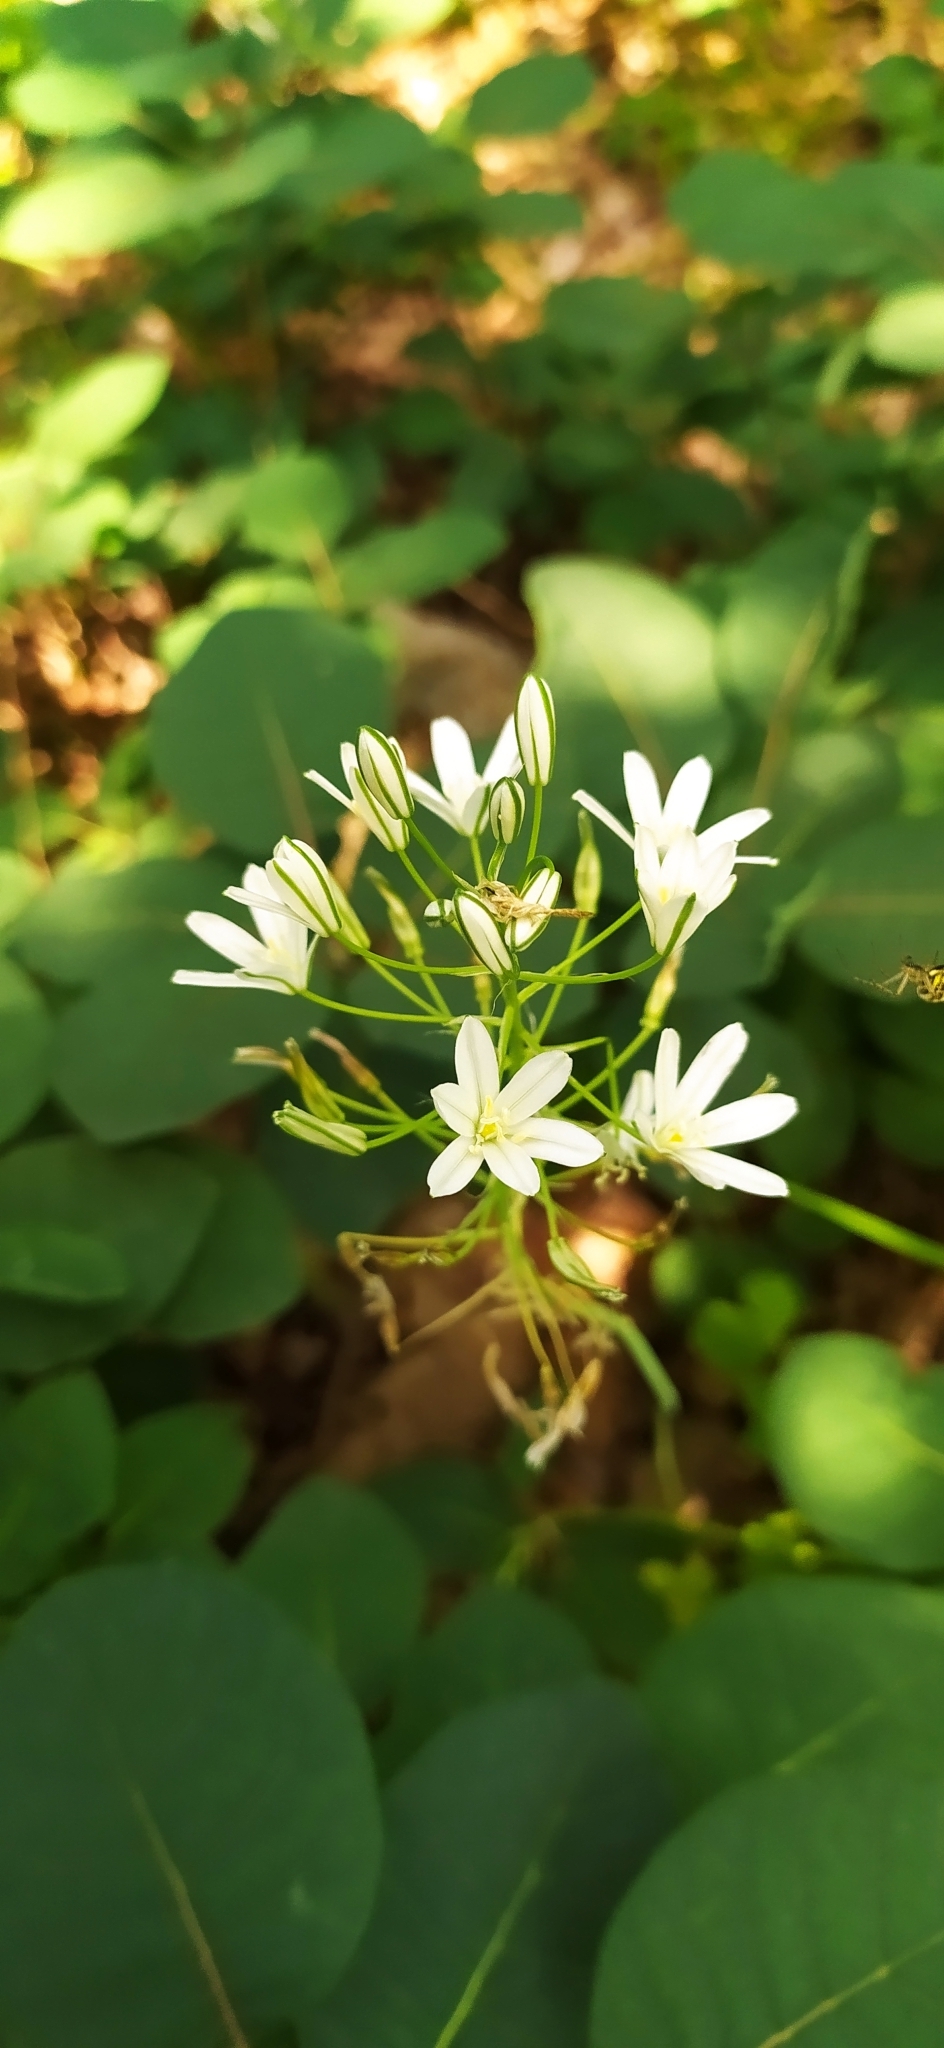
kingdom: Plantae
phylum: Tracheophyta
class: Liliopsida
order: Asparagales
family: Asparagaceae
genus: Ornithogalum
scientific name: Ornithogalum ponticum
